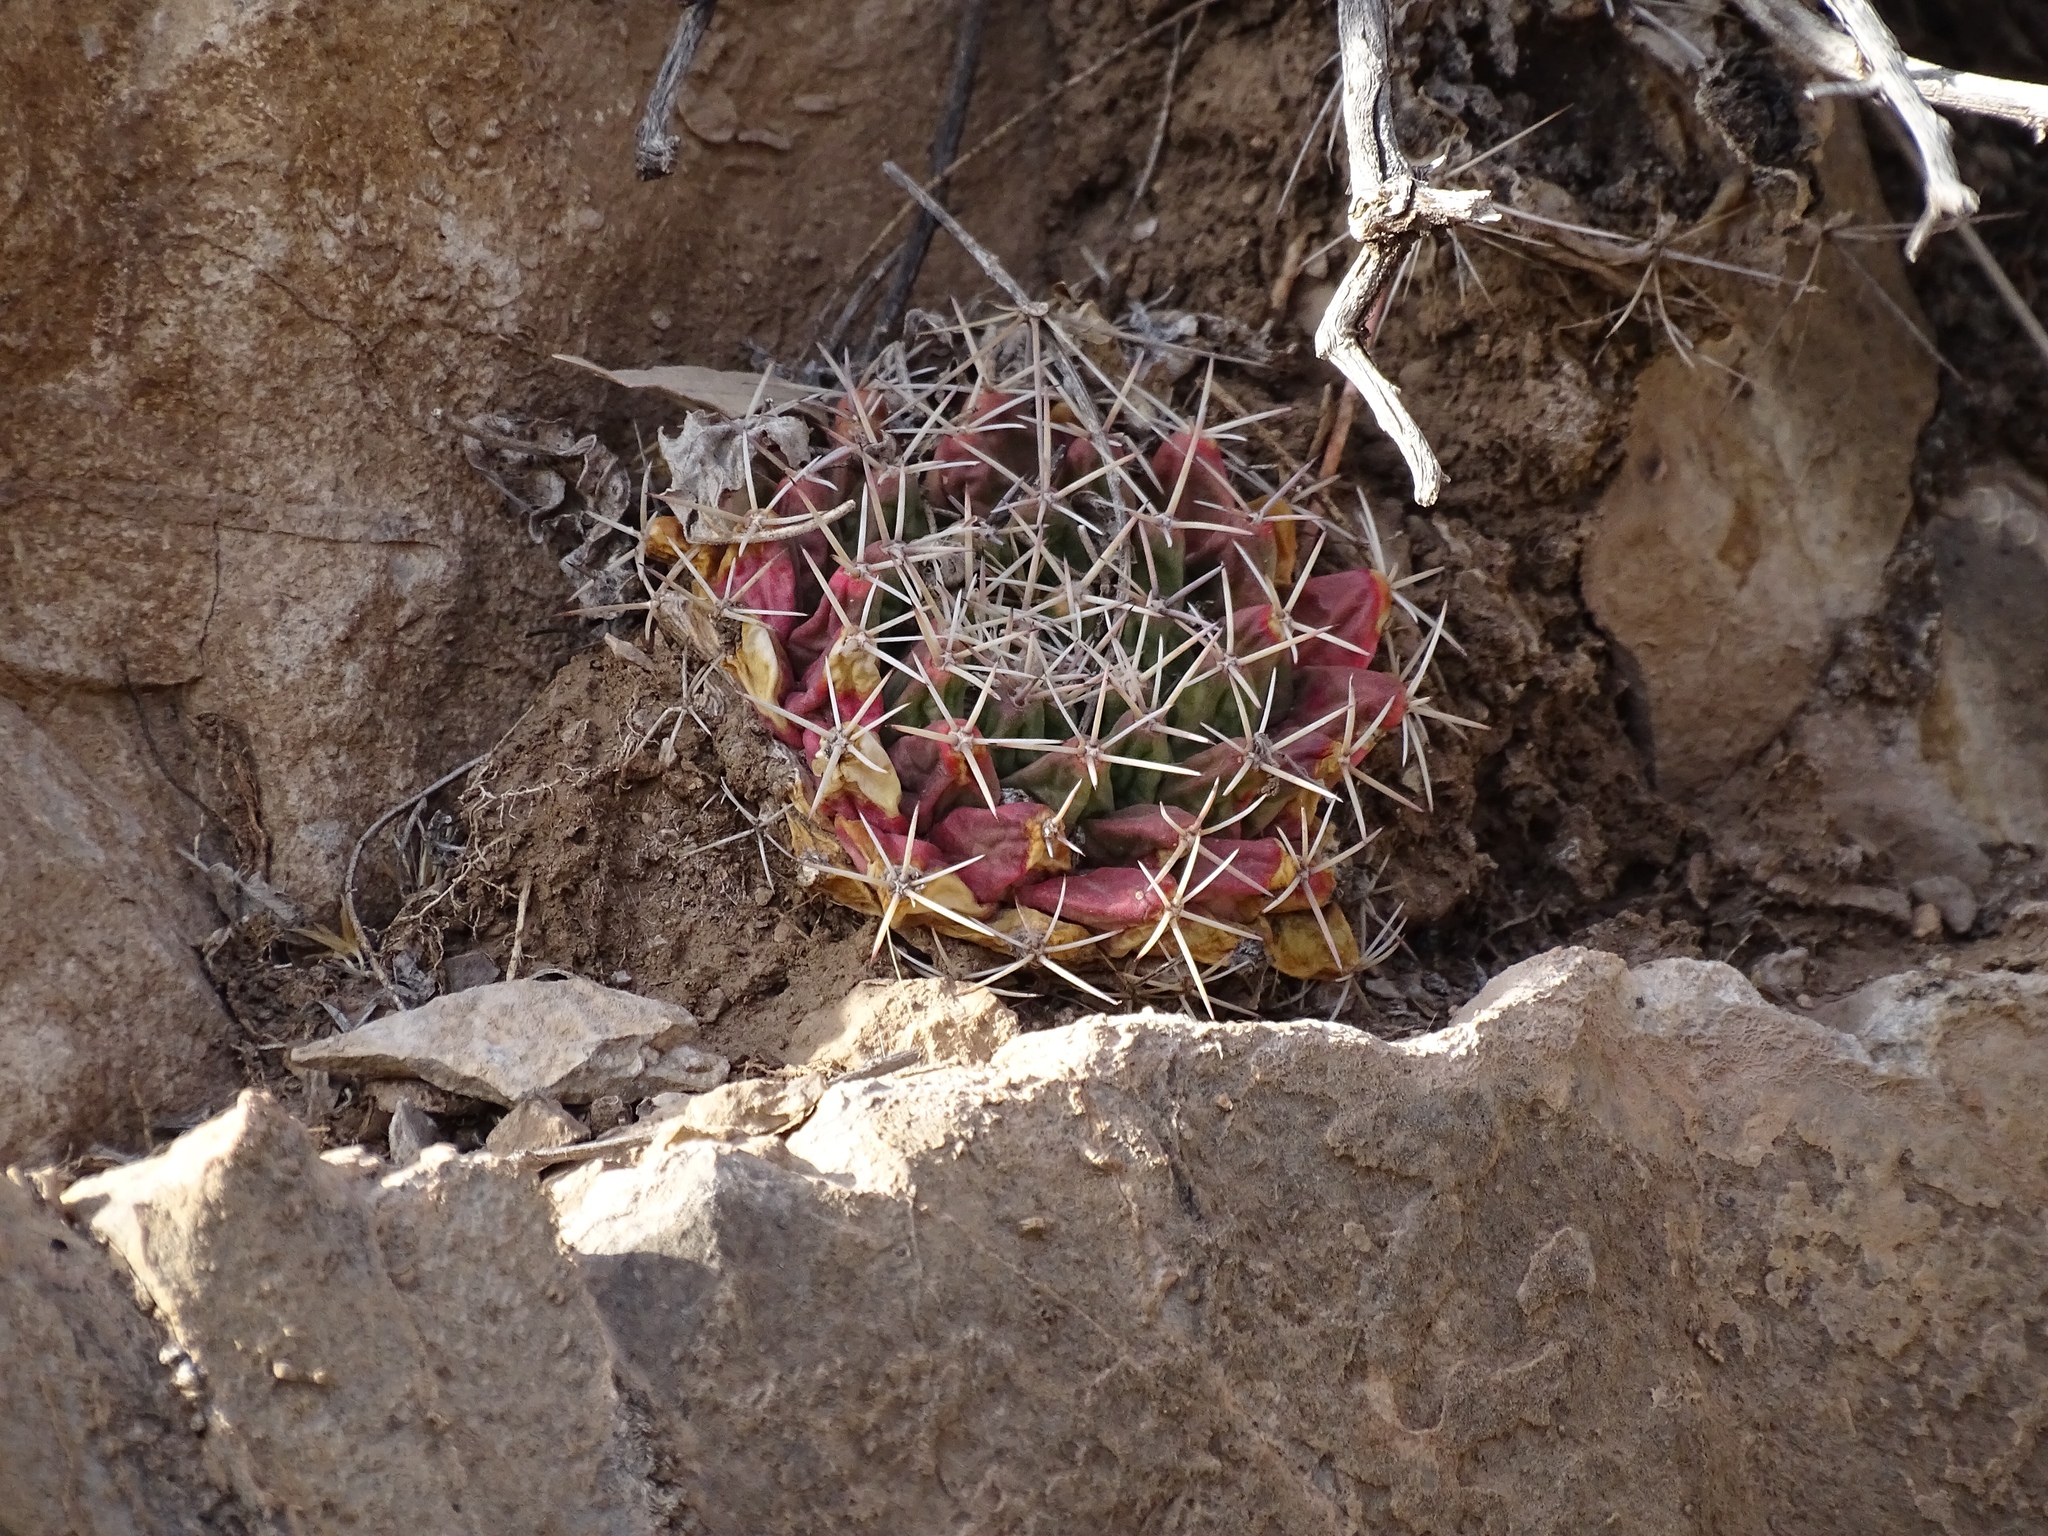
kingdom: Plantae
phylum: Tracheophyta
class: Magnoliopsida
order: Caryophyllales
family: Cactaceae
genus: Mammillaria
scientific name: Mammillaria heyderi
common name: Little nipple cactus
